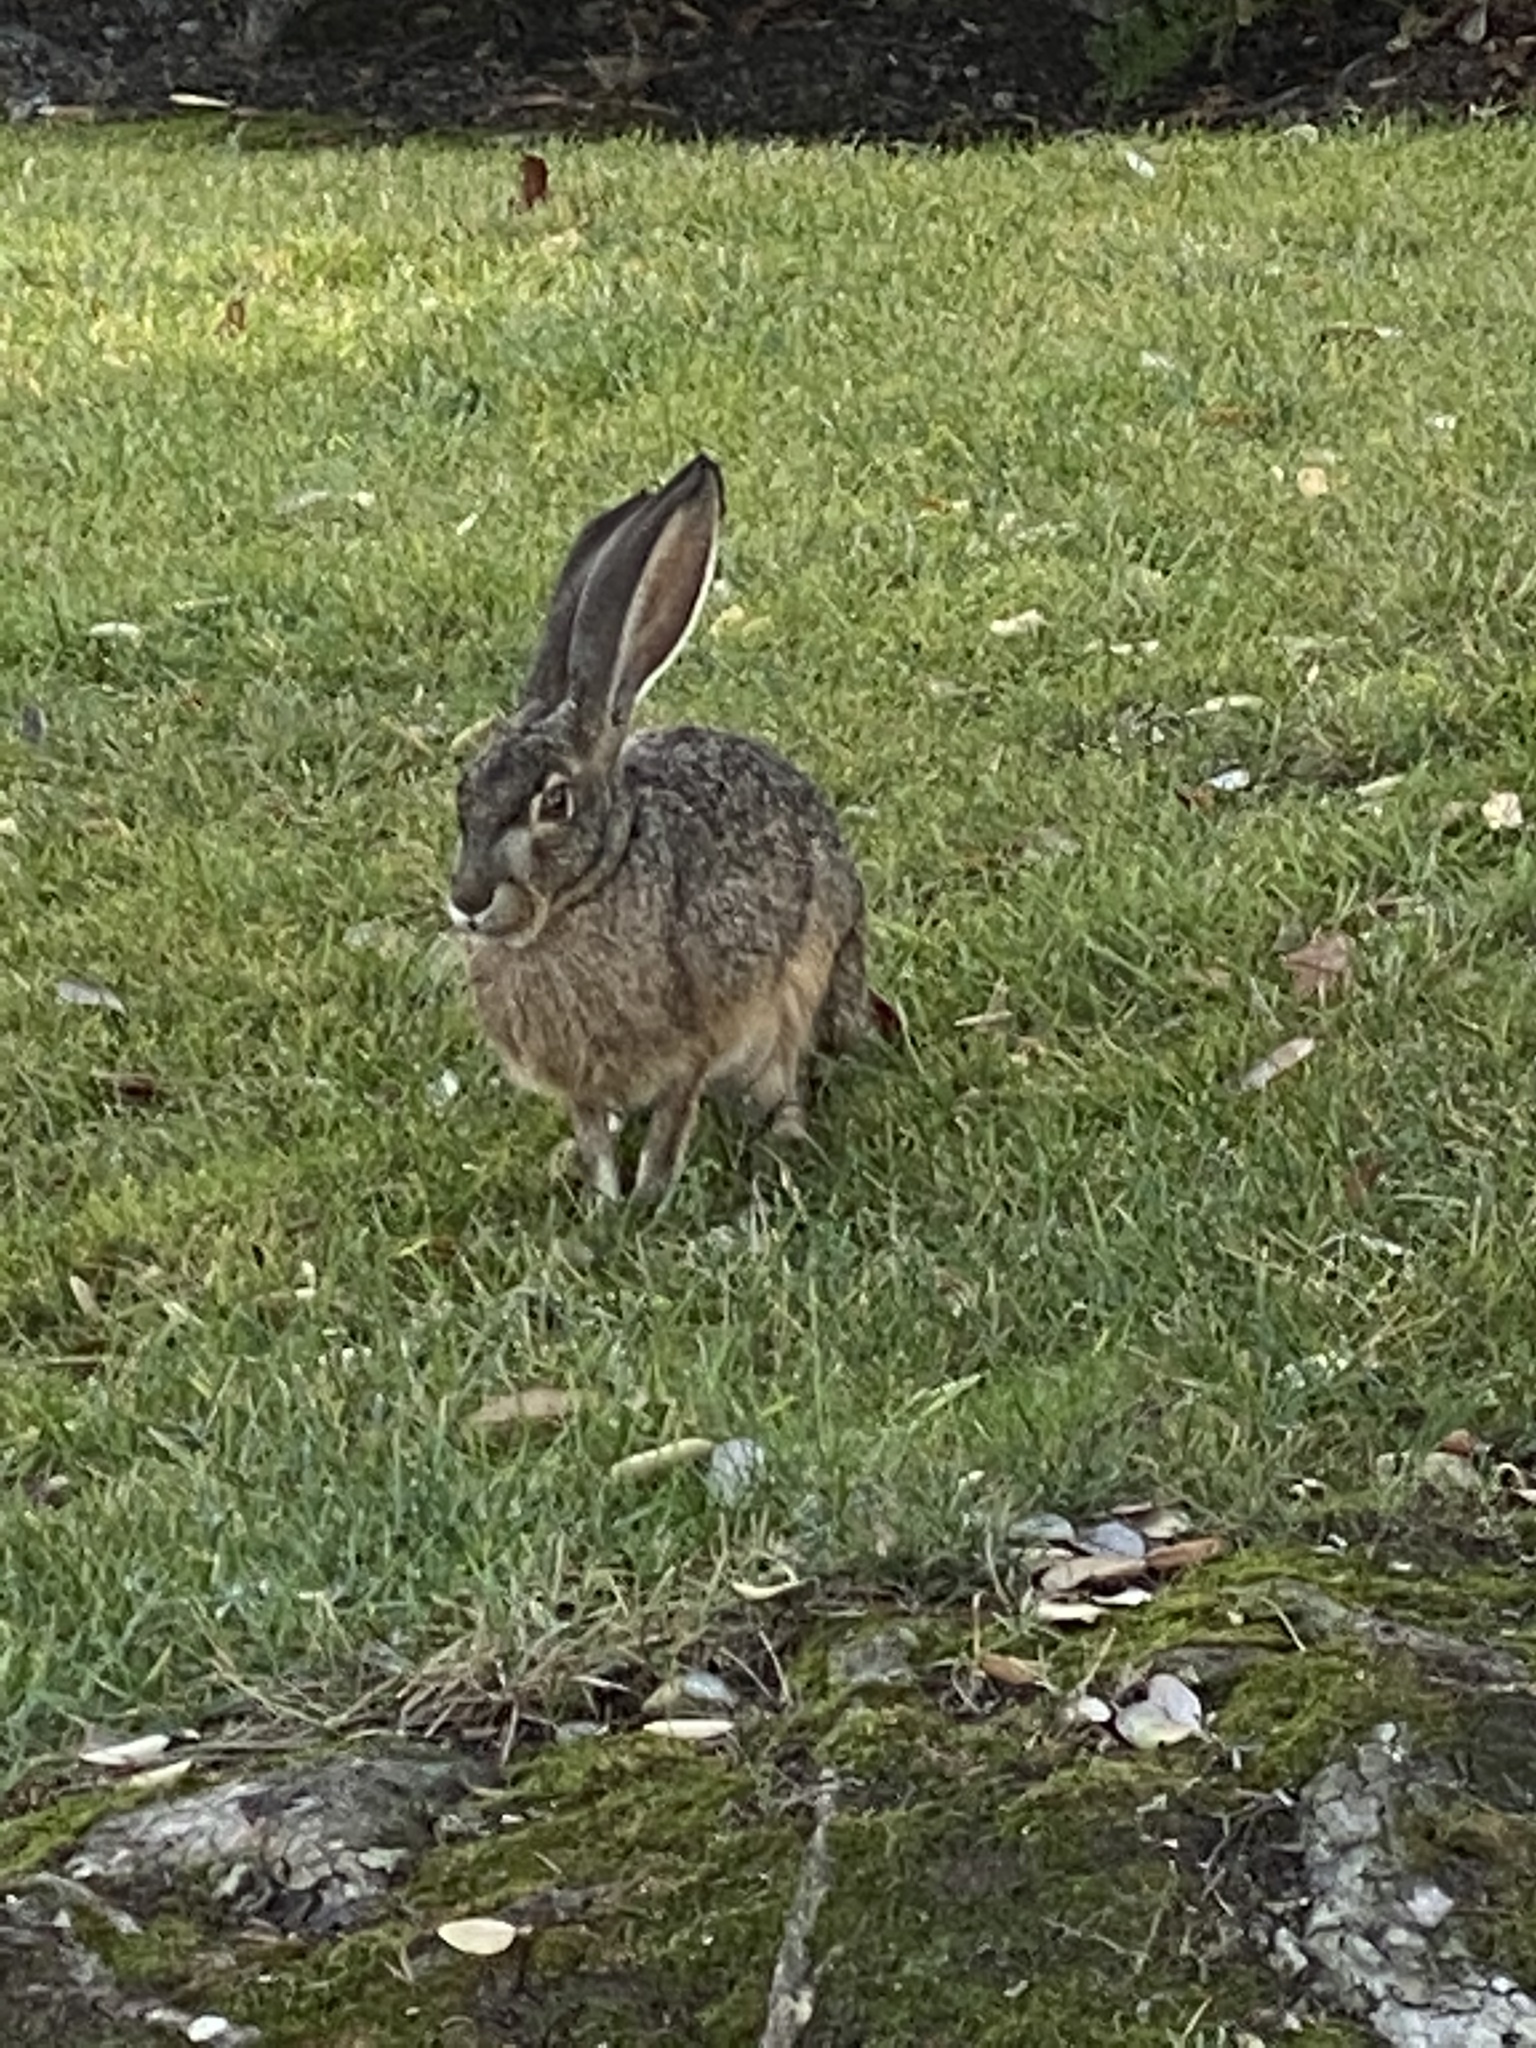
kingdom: Animalia
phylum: Chordata
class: Mammalia
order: Lagomorpha
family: Leporidae
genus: Lepus
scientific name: Lepus californicus
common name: Black-tailed jackrabbit
